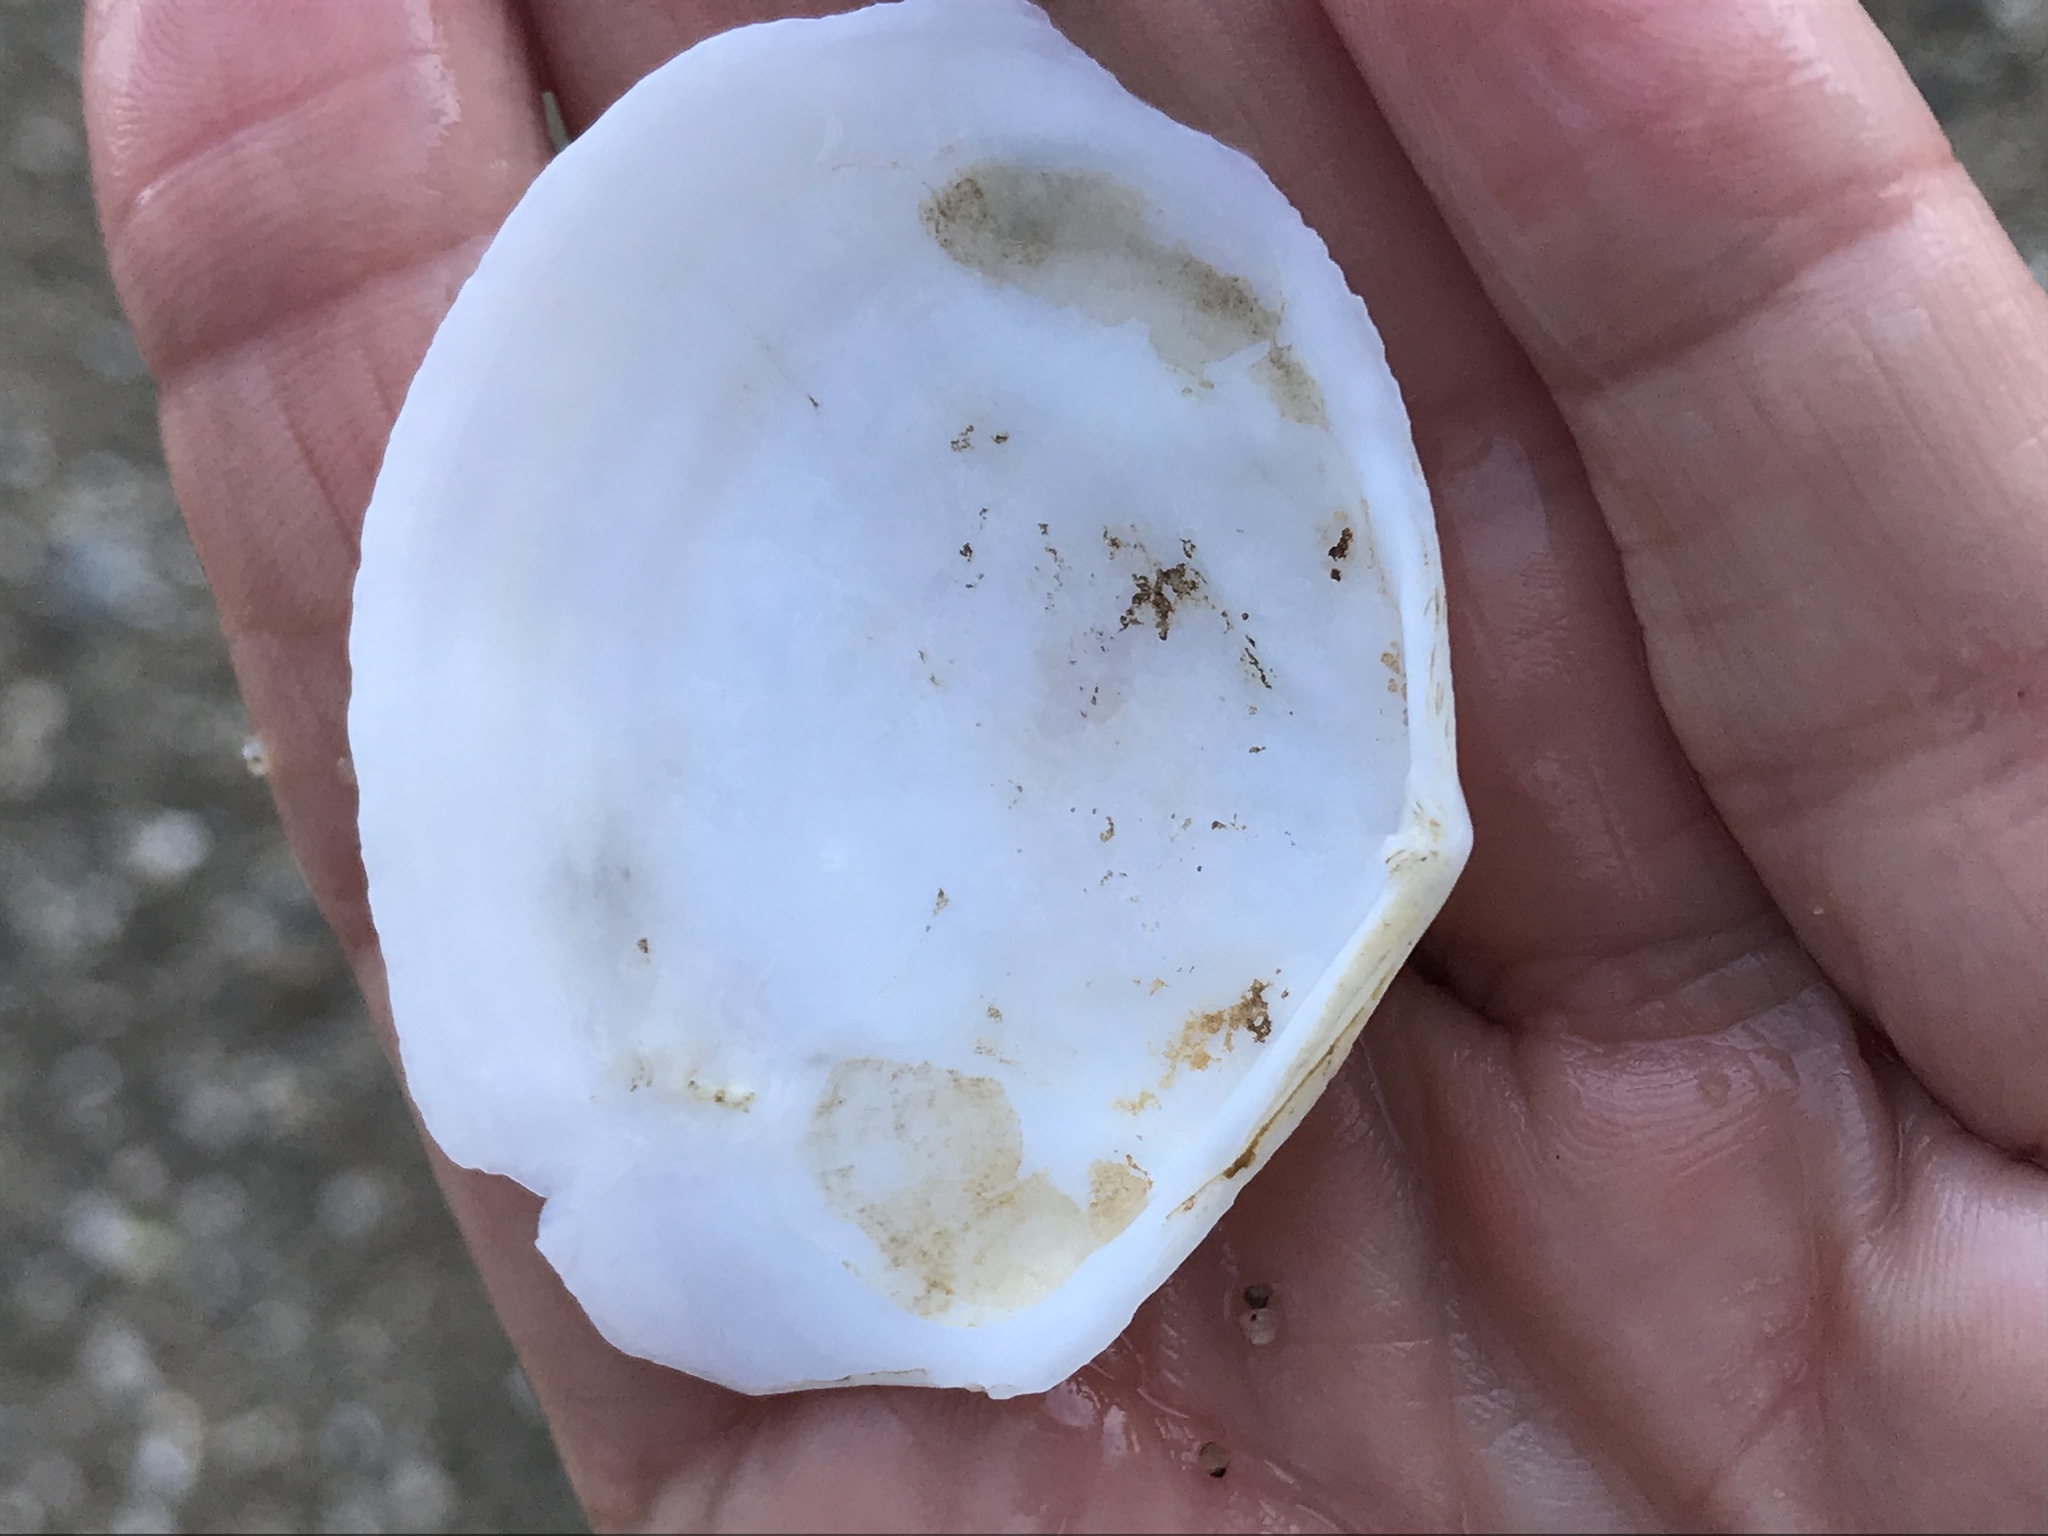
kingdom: Animalia
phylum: Mollusca
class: Bivalvia
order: Cardiida
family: Tellinidae
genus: Macoma
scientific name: Macoma nasuta
